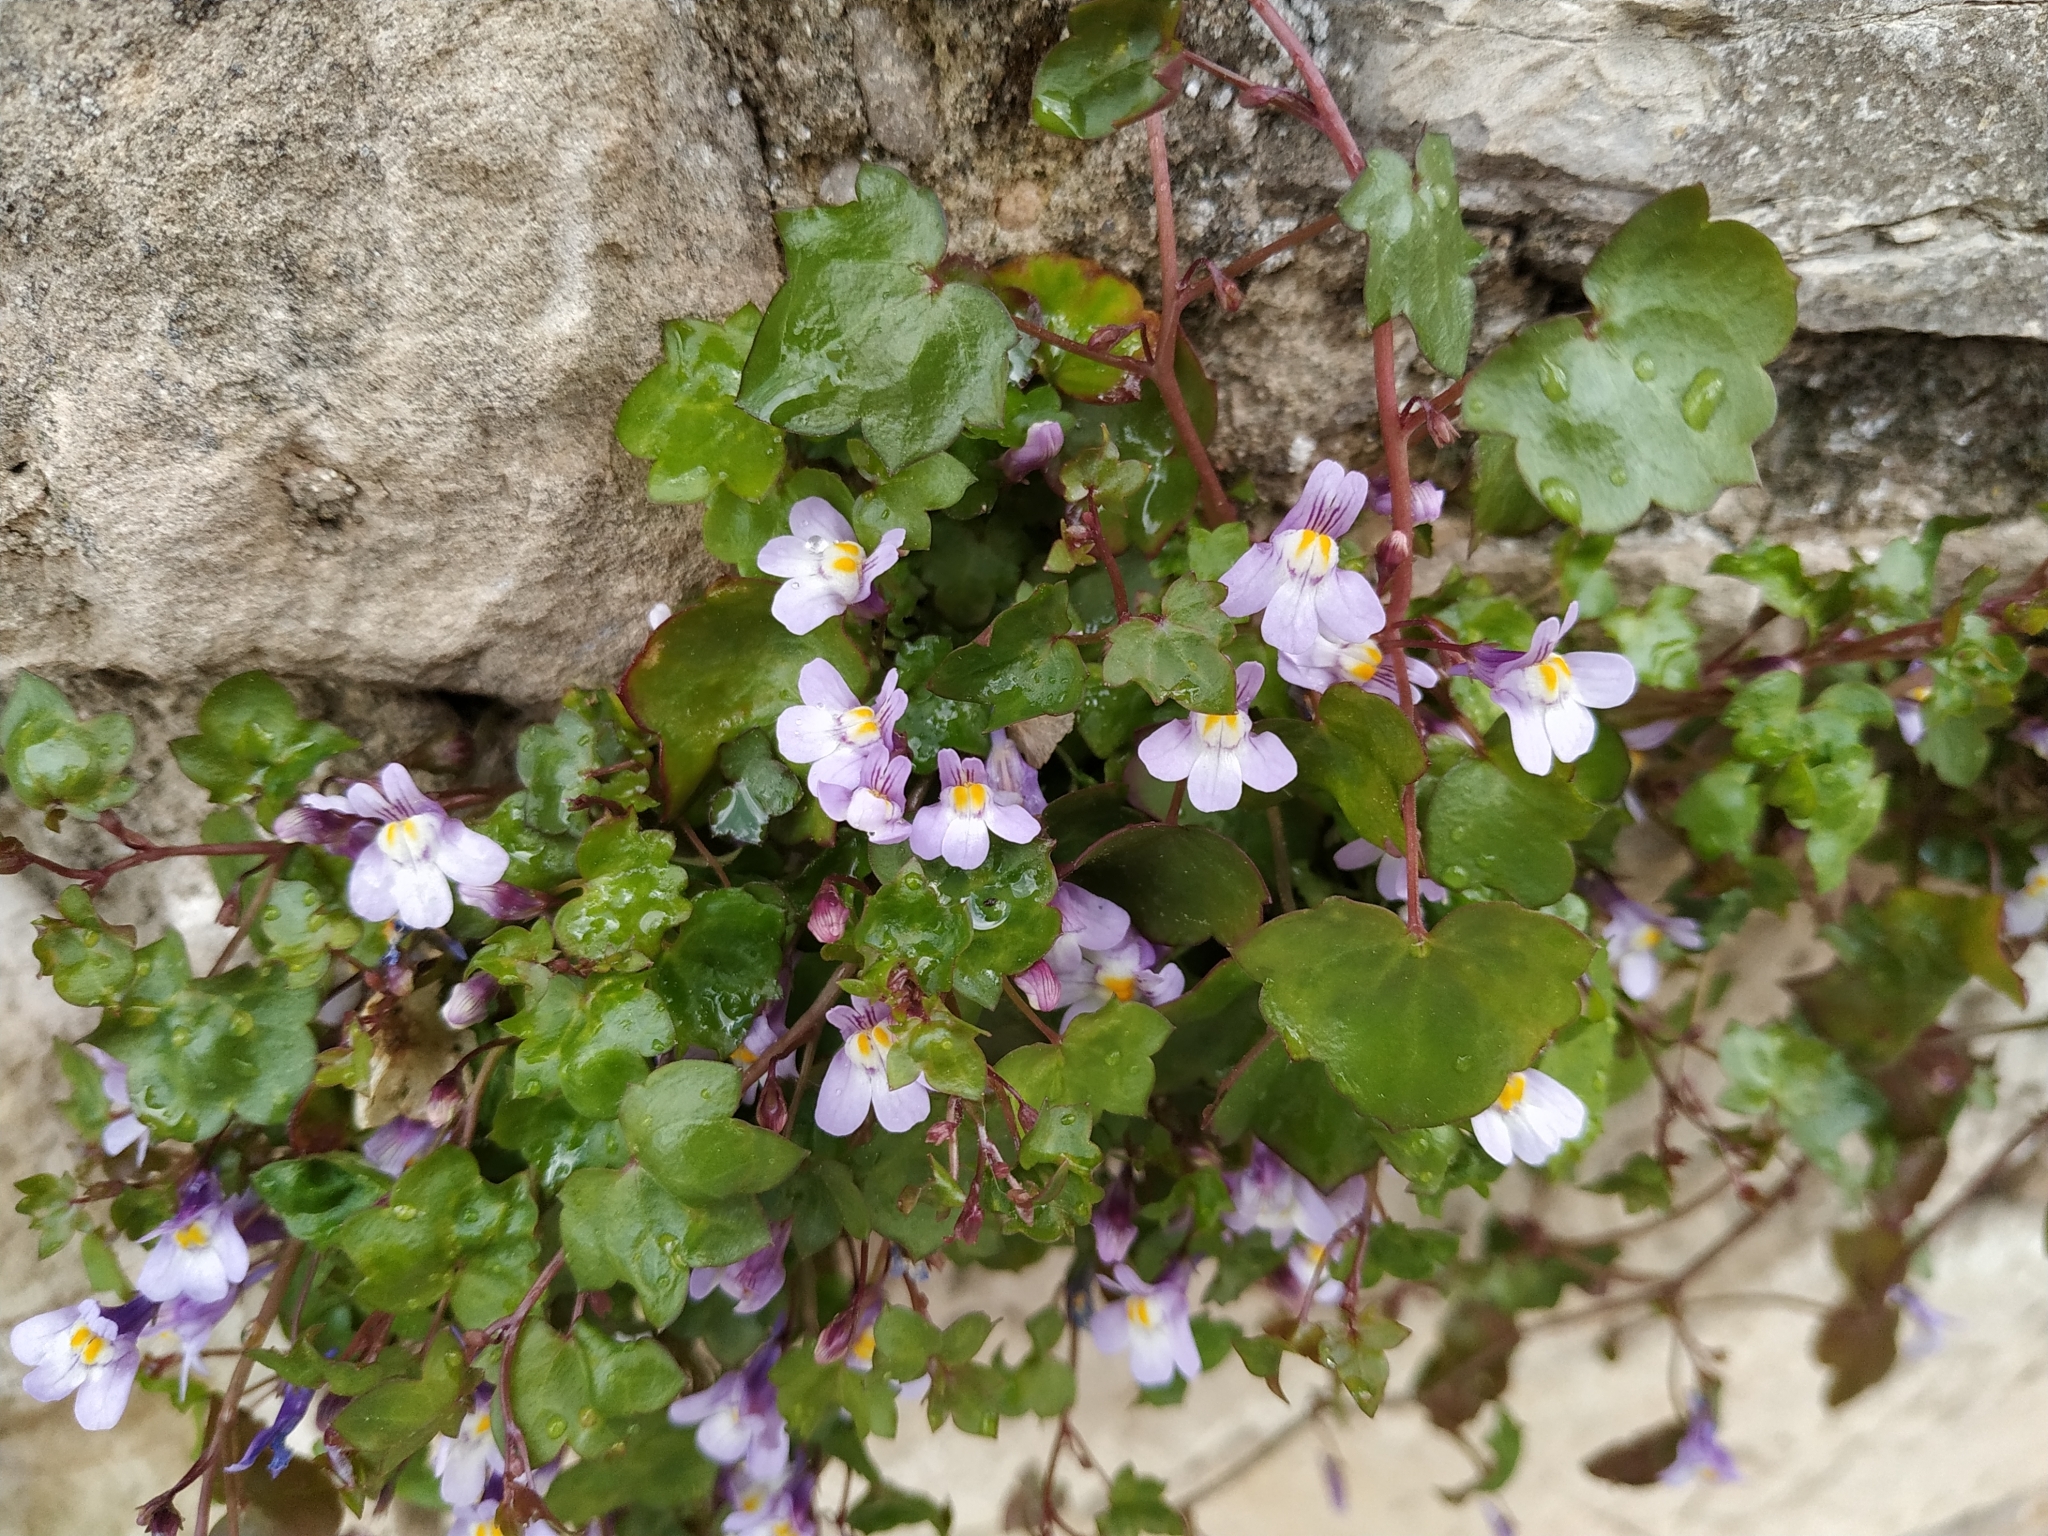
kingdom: Plantae
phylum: Tracheophyta
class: Magnoliopsida
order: Lamiales
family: Plantaginaceae
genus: Cymbalaria
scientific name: Cymbalaria muralis
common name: Ivy-leaved toadflax
